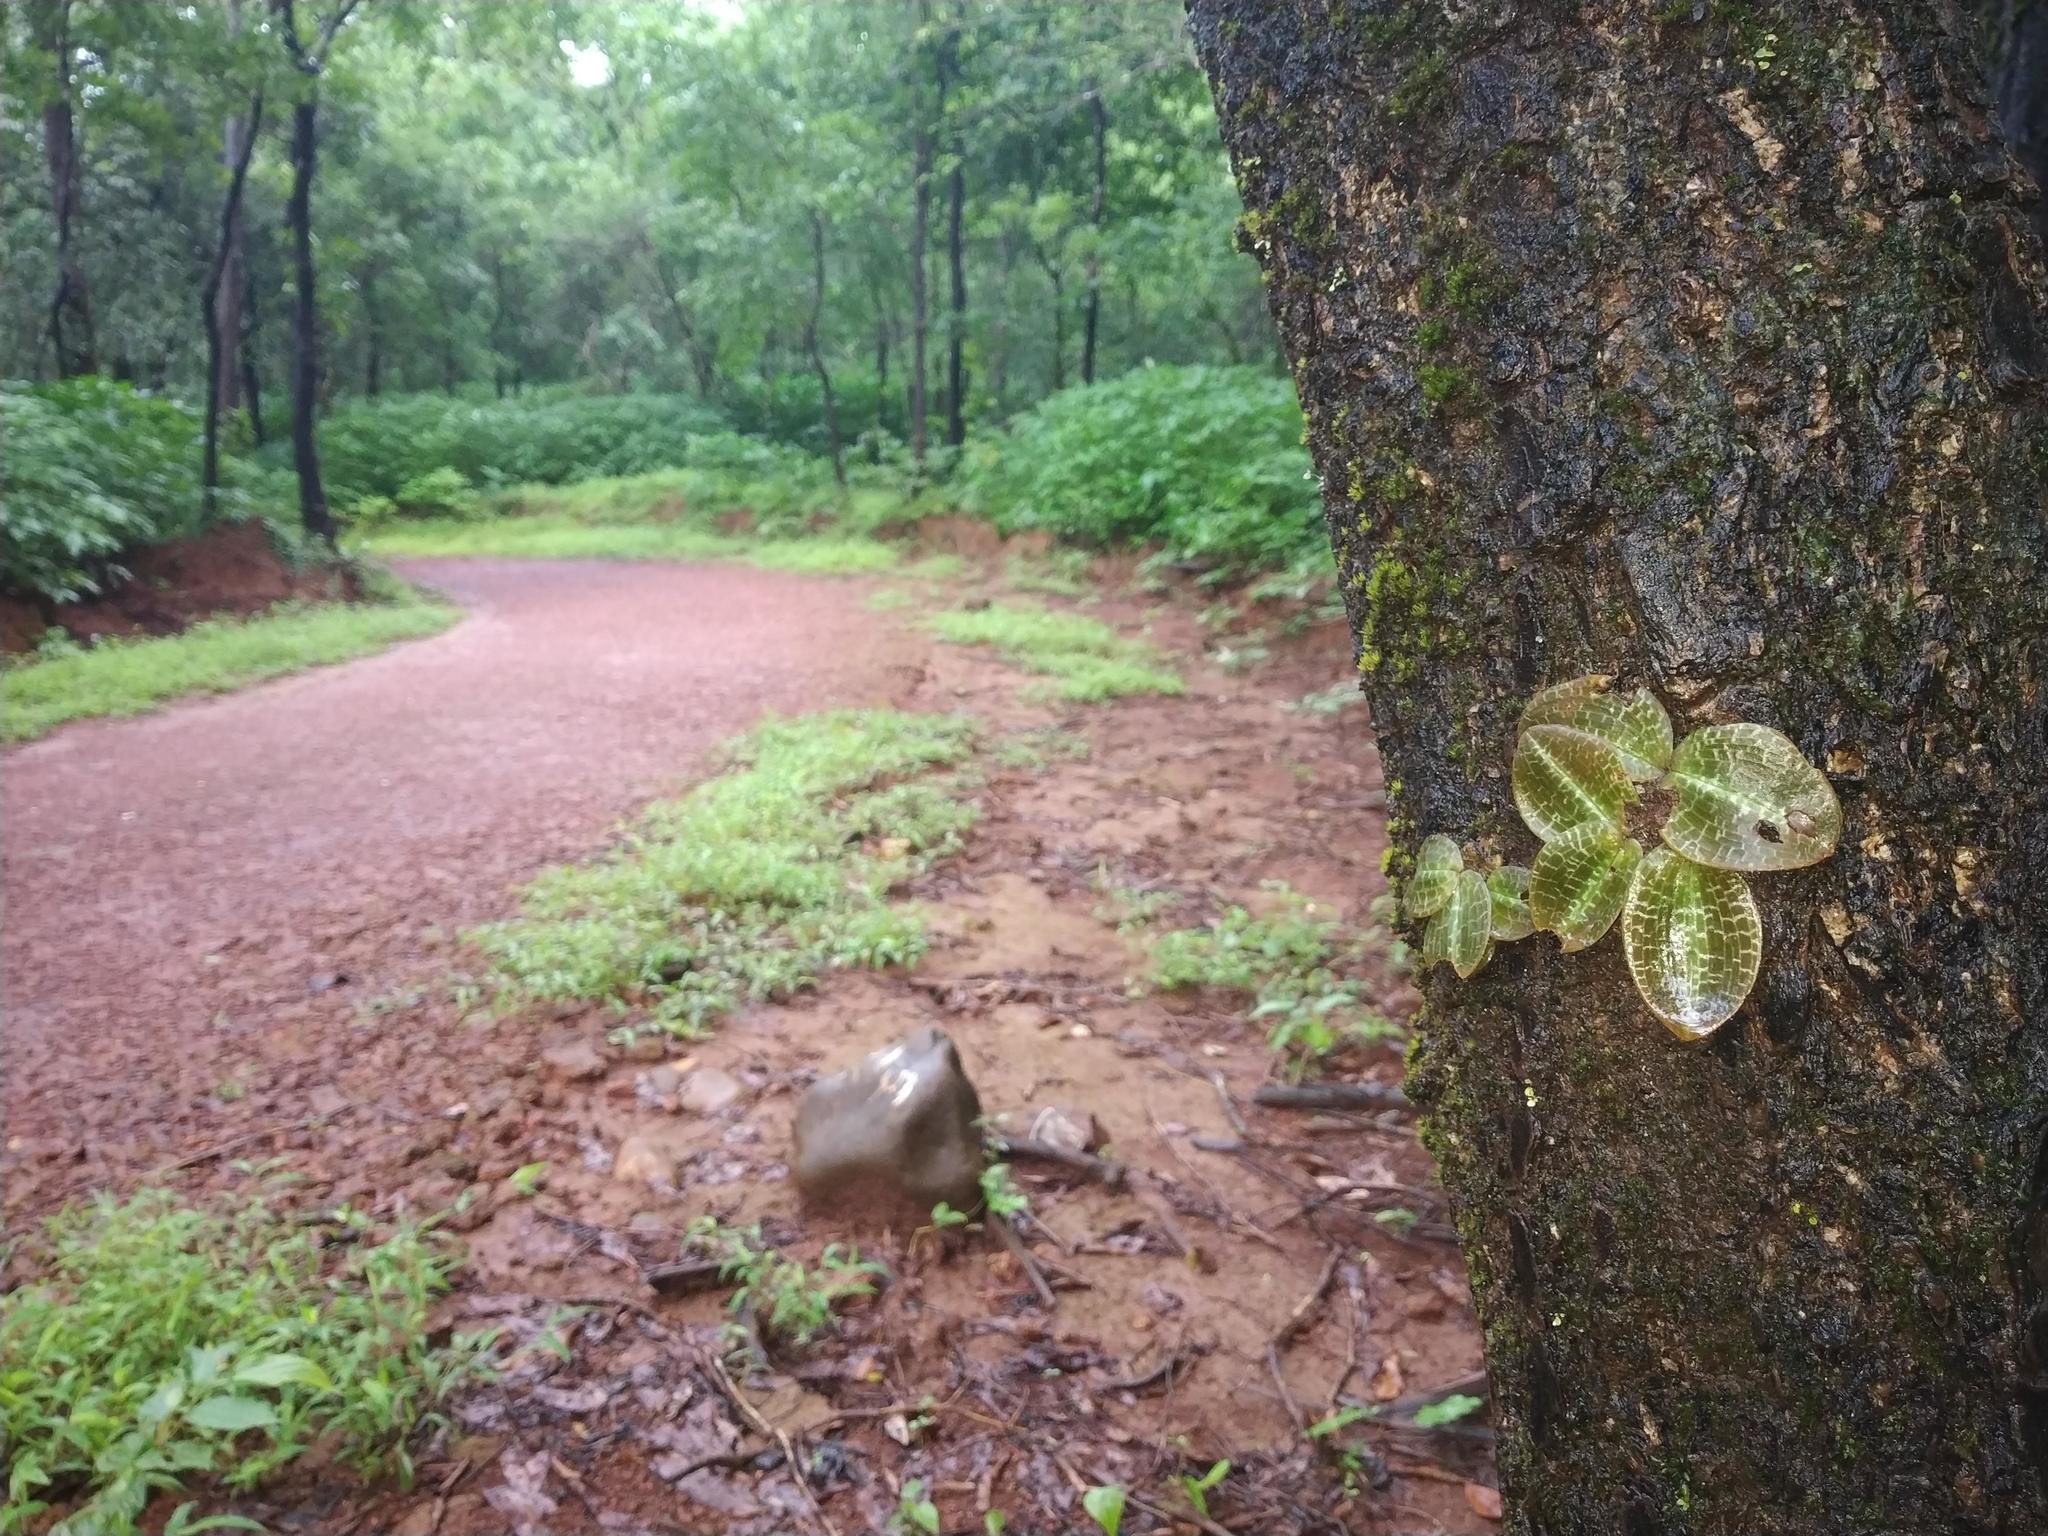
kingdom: Plantae
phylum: Tracheophyta
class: Liliopsida
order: Asparagales
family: Orchidaceae
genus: Porpax
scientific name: Porpax jerdoniana
